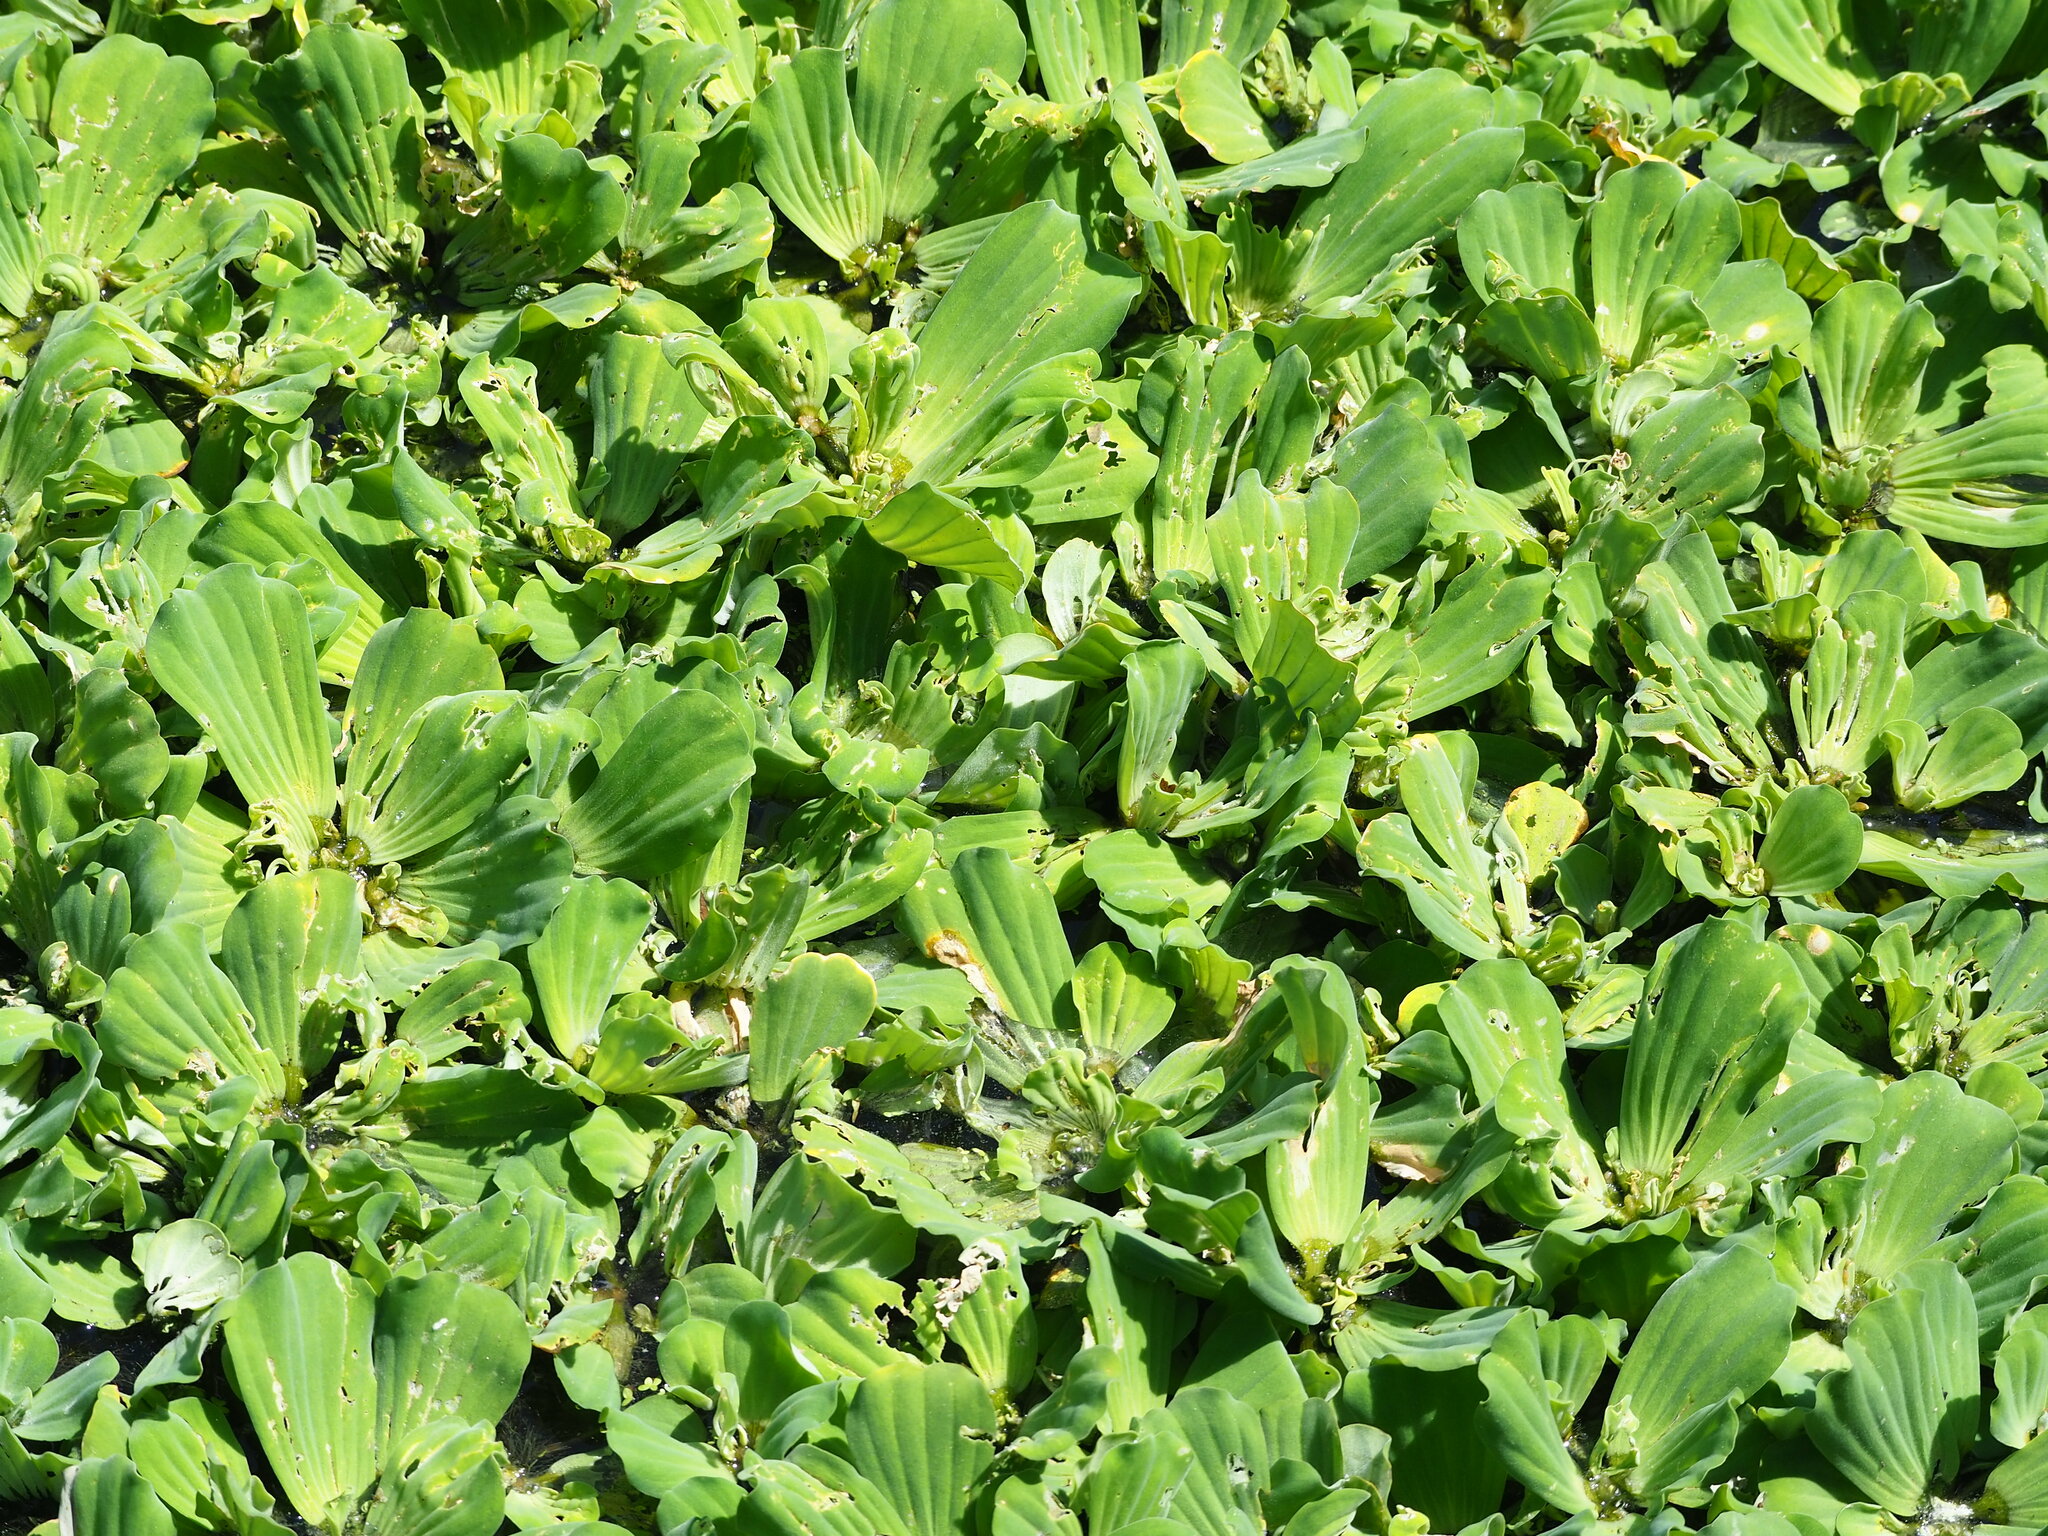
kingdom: Plantae
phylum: Tracheophyta
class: Liliopsida
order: Alismatales
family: Araceae
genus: Pistia
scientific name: Pistia stratiotes
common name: Water lettuce
